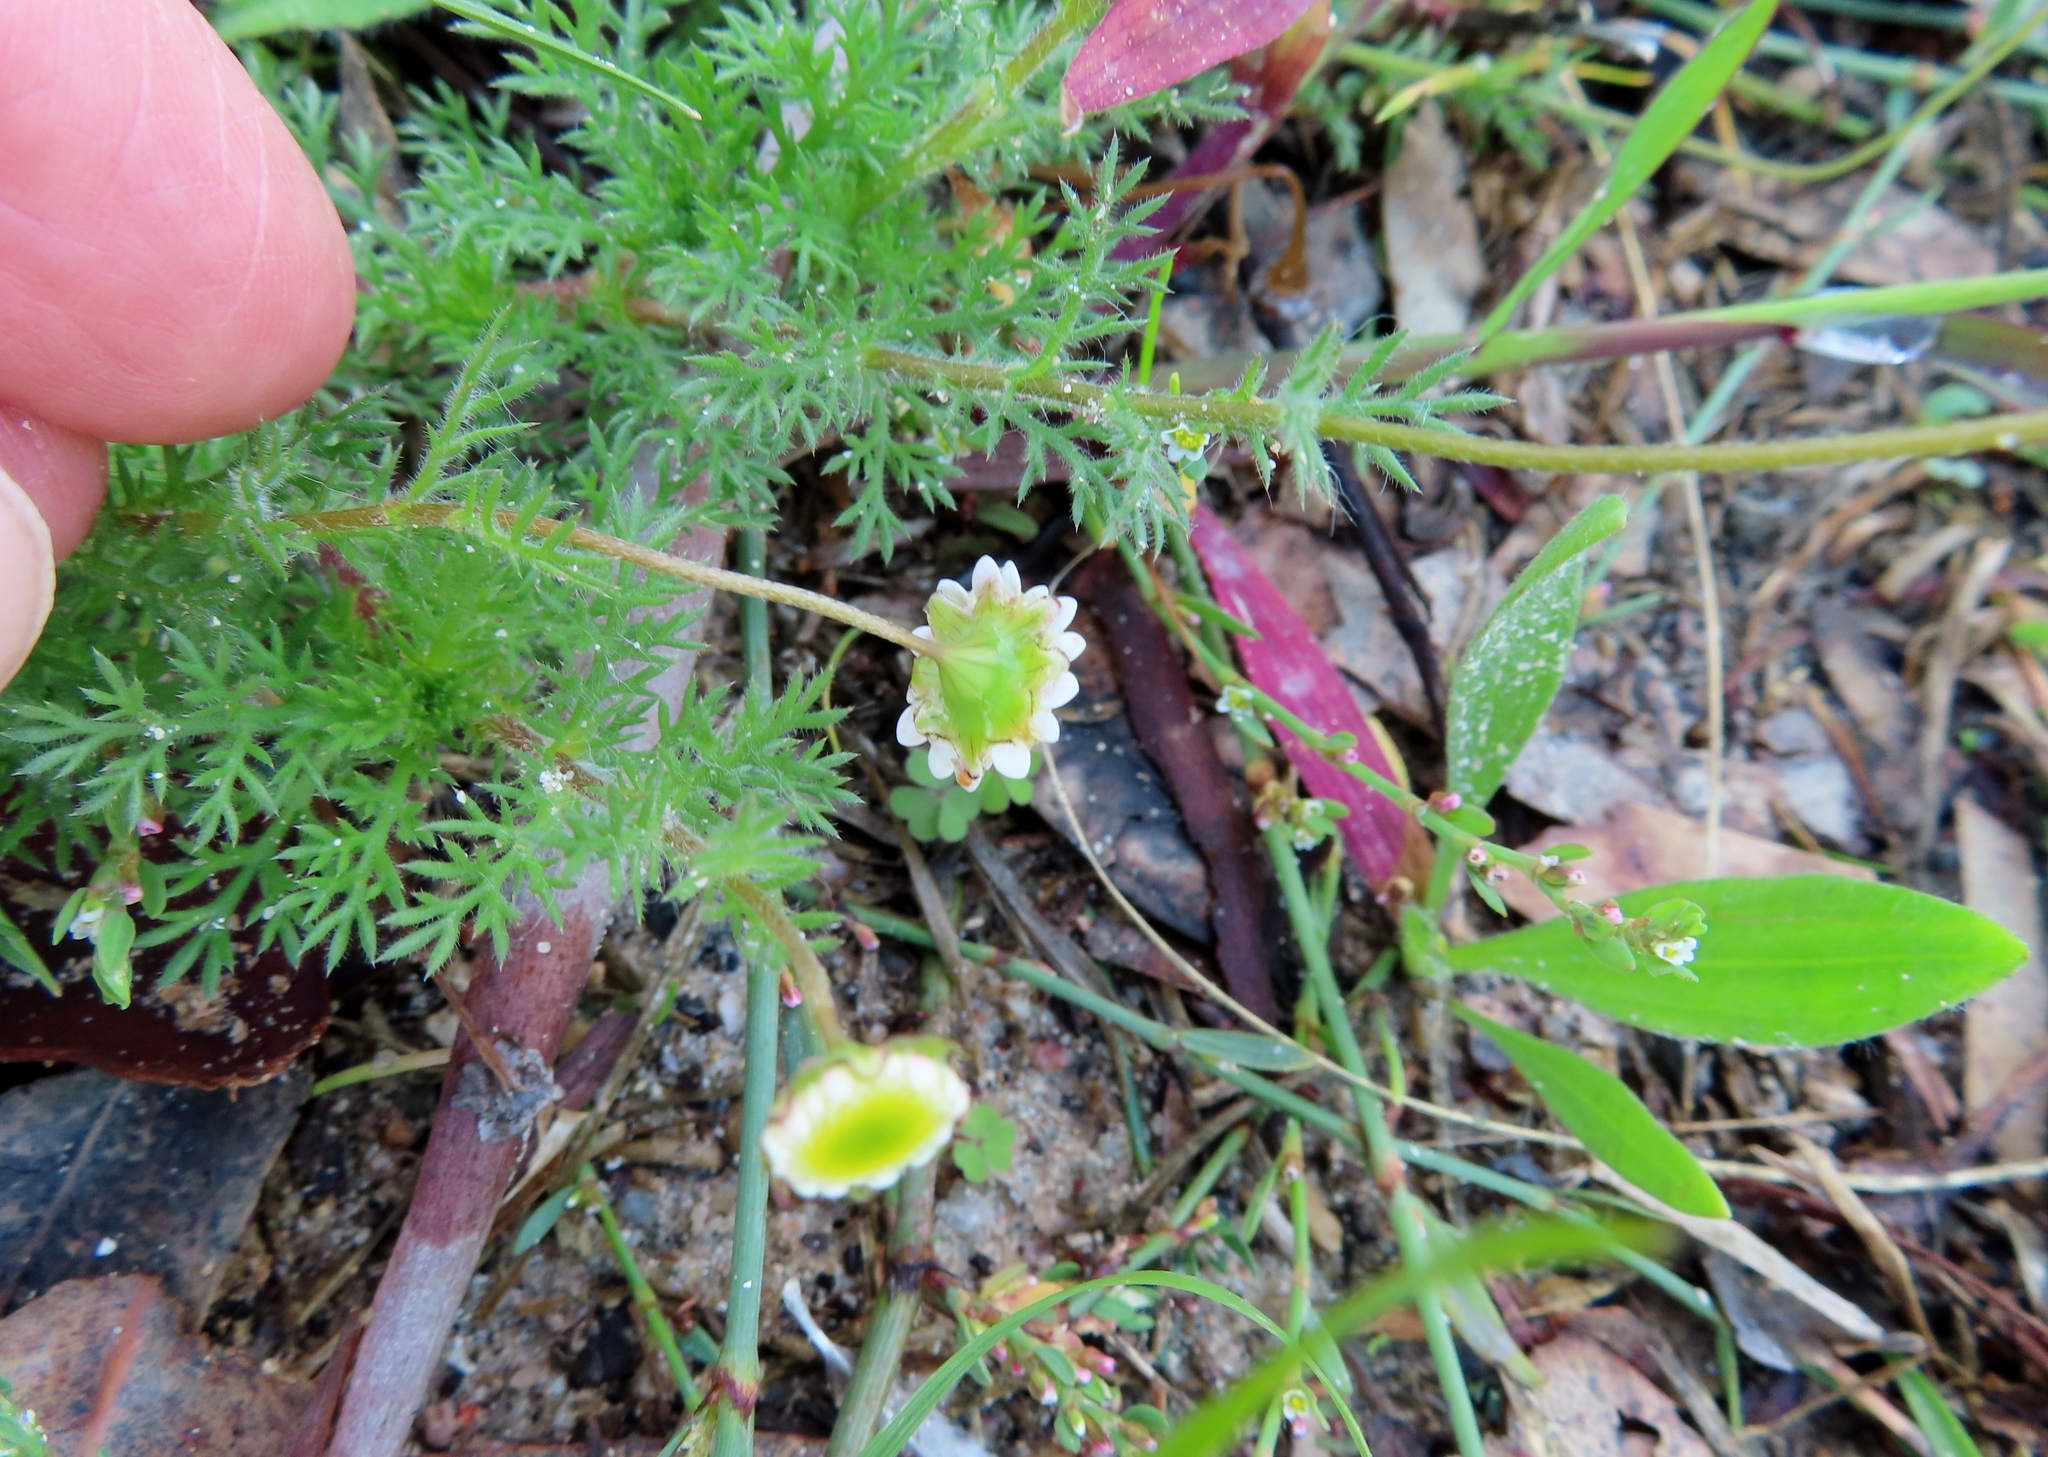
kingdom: Plantae
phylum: Tracheophyta
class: Magnoliopsida
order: Asterales
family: Asteraceae
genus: Cotula
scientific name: Cotula turbinata
